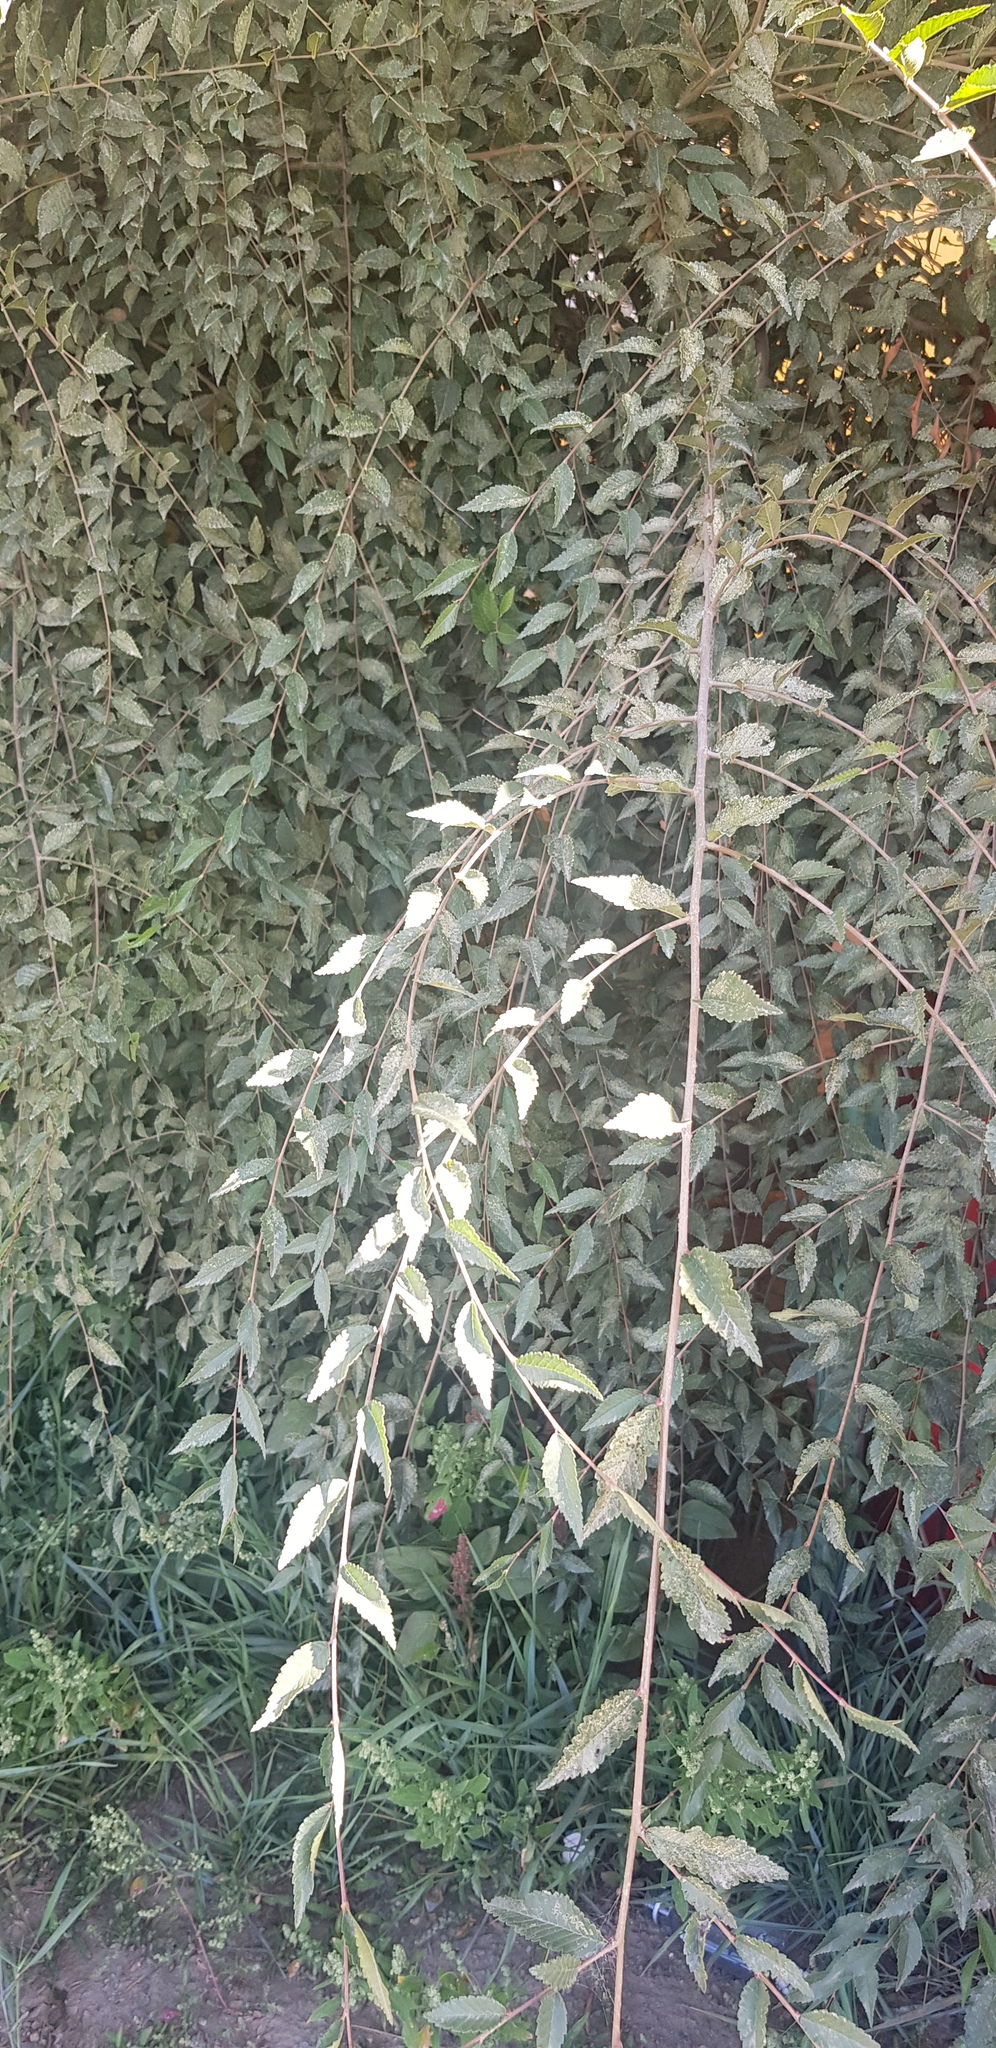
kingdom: Plantae
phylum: Tracheophyta
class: Magnoliopsida
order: Rosales
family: Ulmaceae
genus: Ulmus
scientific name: Ulmus pumila
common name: Siberian elm
